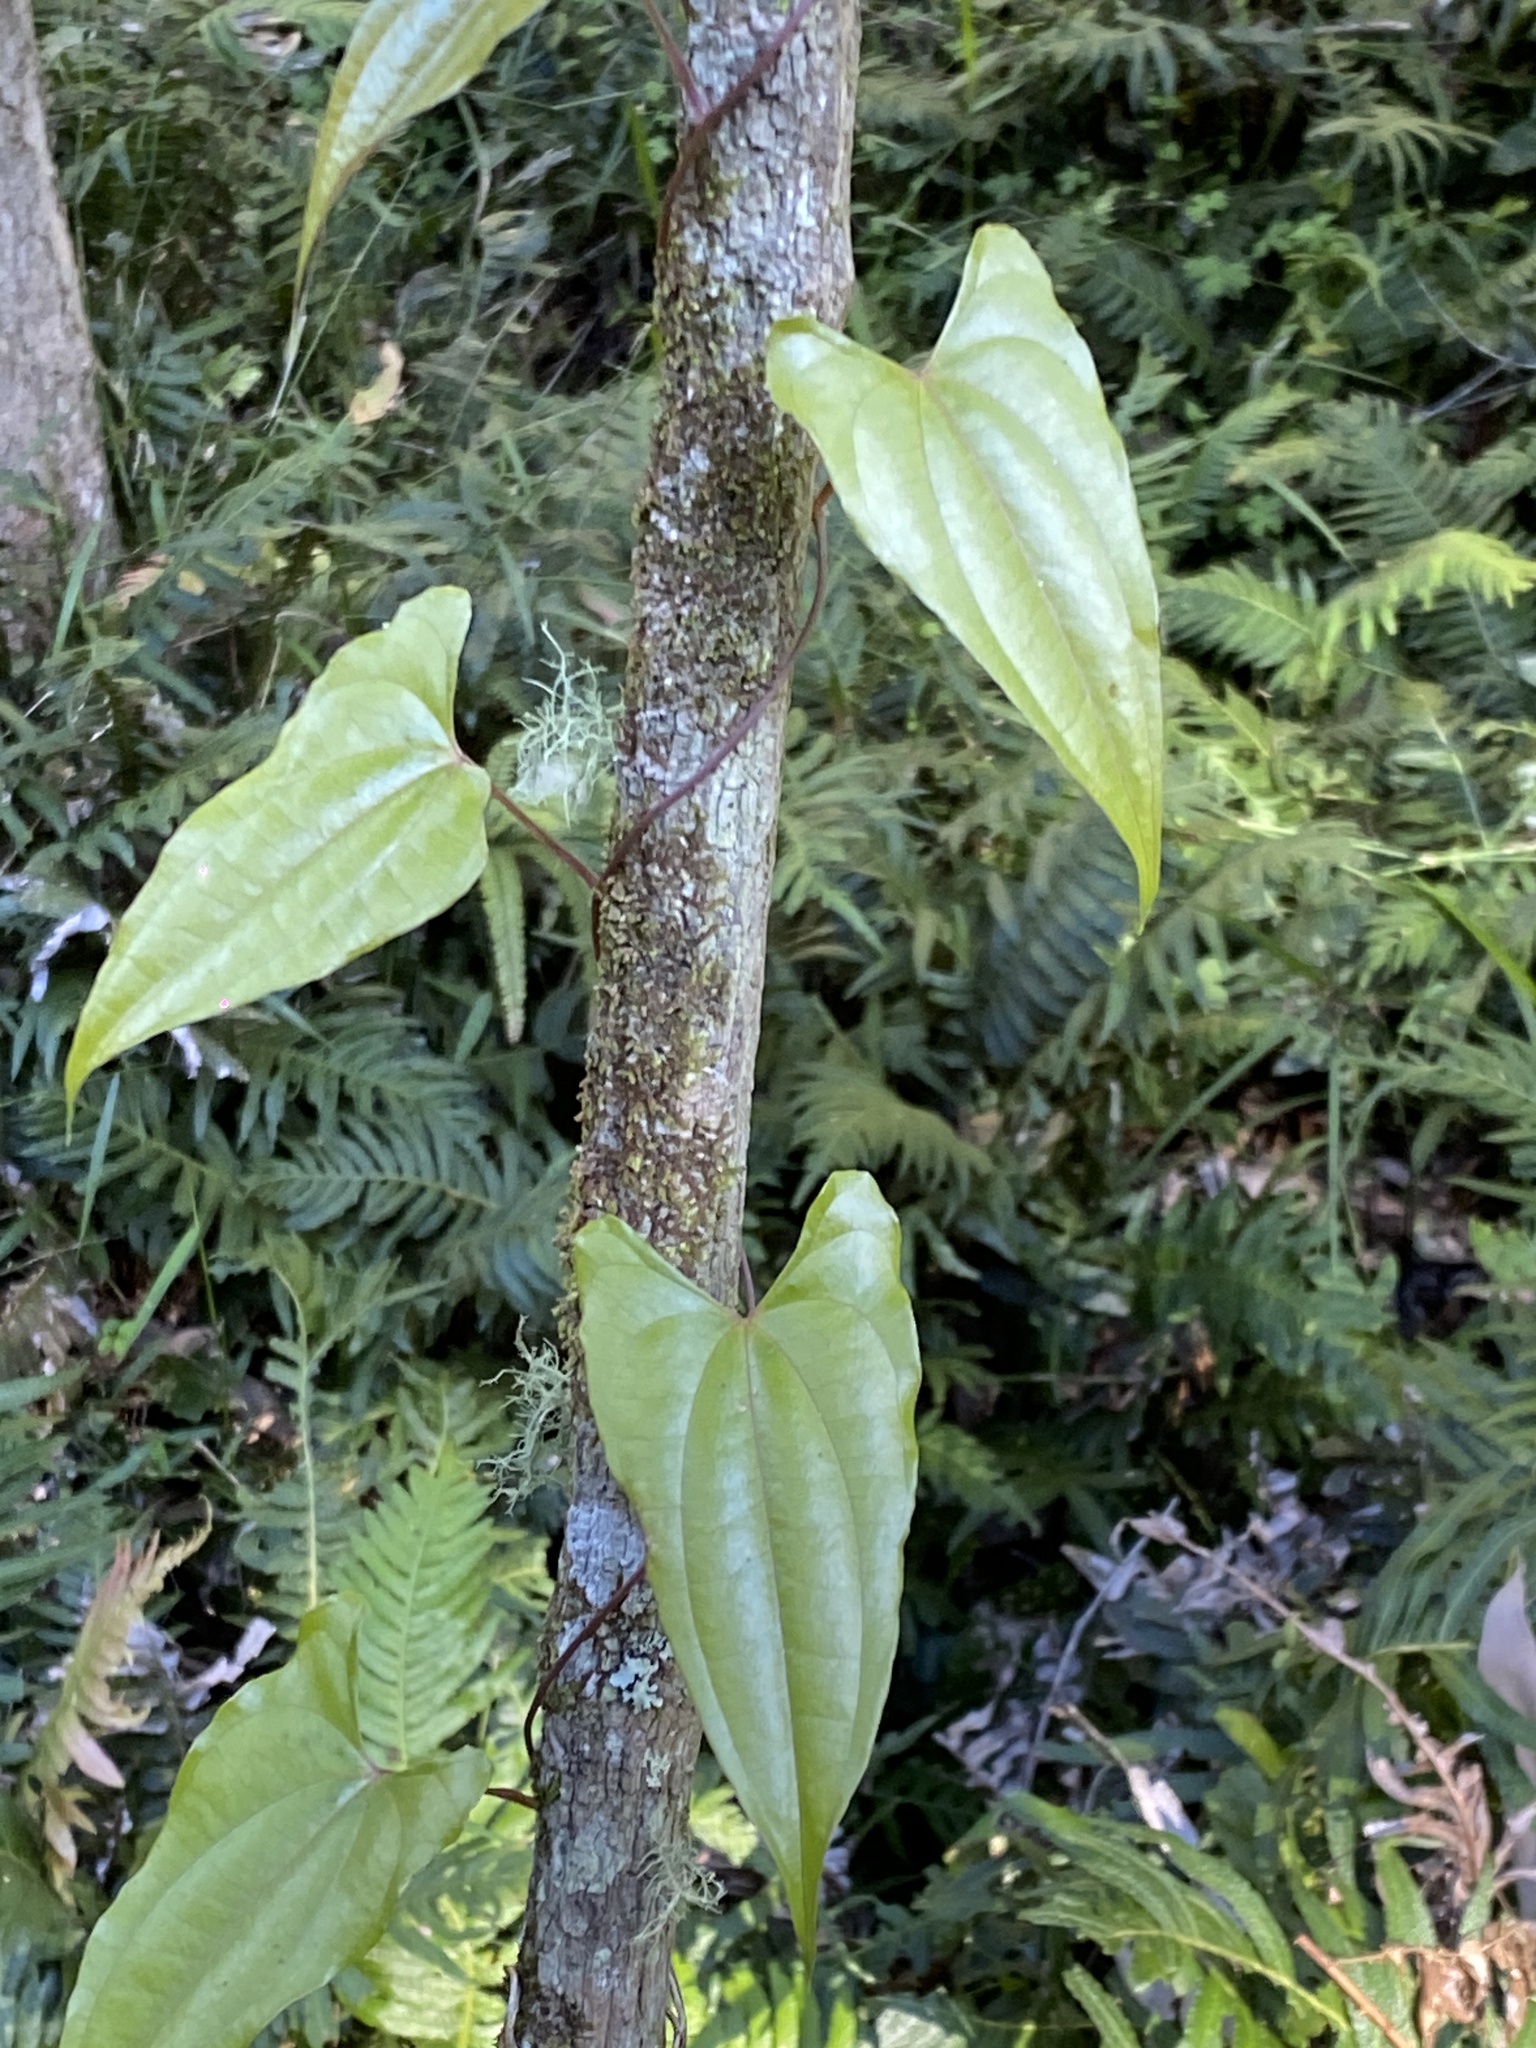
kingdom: Plantae
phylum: Tracheophyta
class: Liliopsida
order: Dioscoreales
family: Dioscoreaceae
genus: Dioscorea
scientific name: Dioscorea transversa
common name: Long yam
